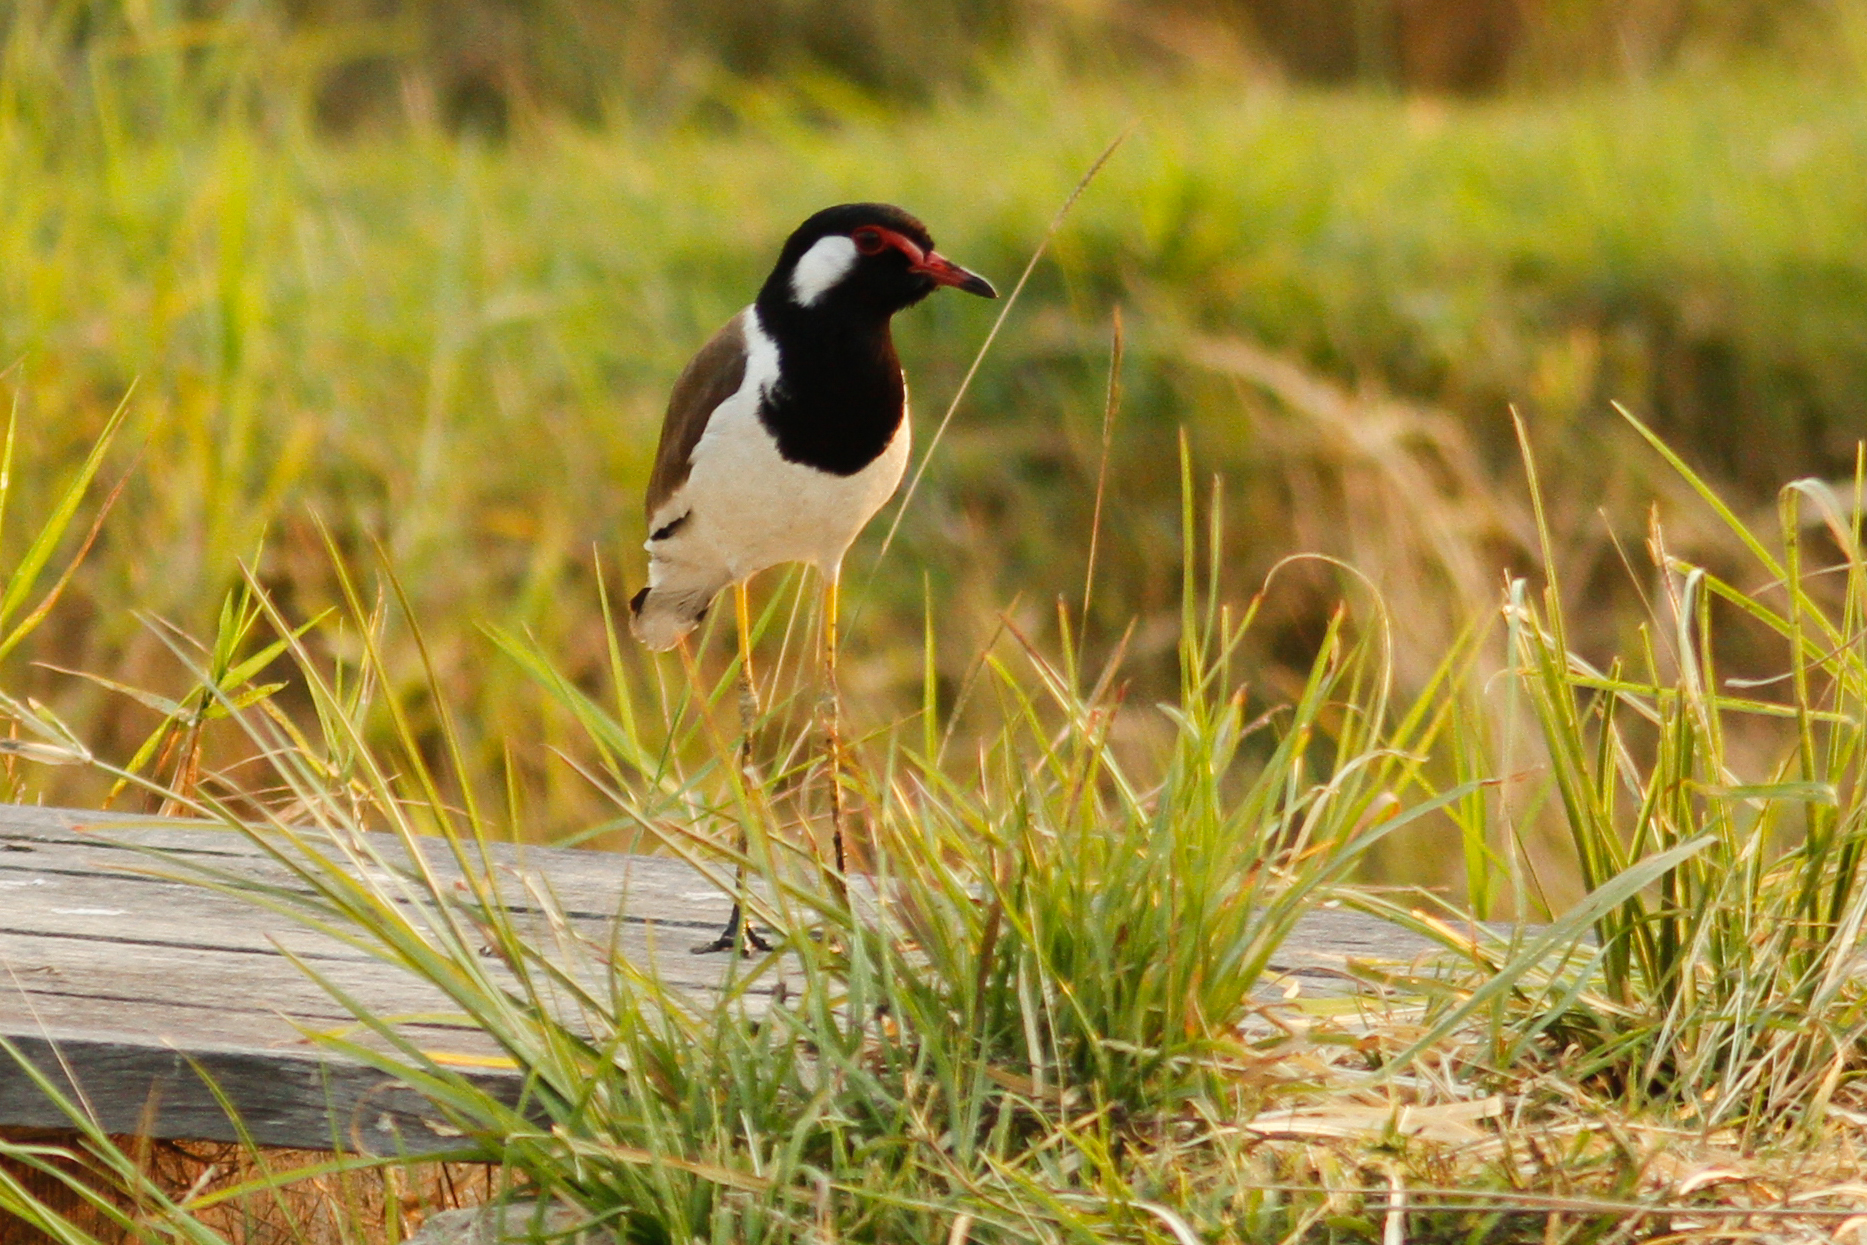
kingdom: Animalia
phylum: Chordata
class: Aves
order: Charadriiformes
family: Charadriidae
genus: Vanellus
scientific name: Vanellus indicus
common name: Red-wattled lapwing
